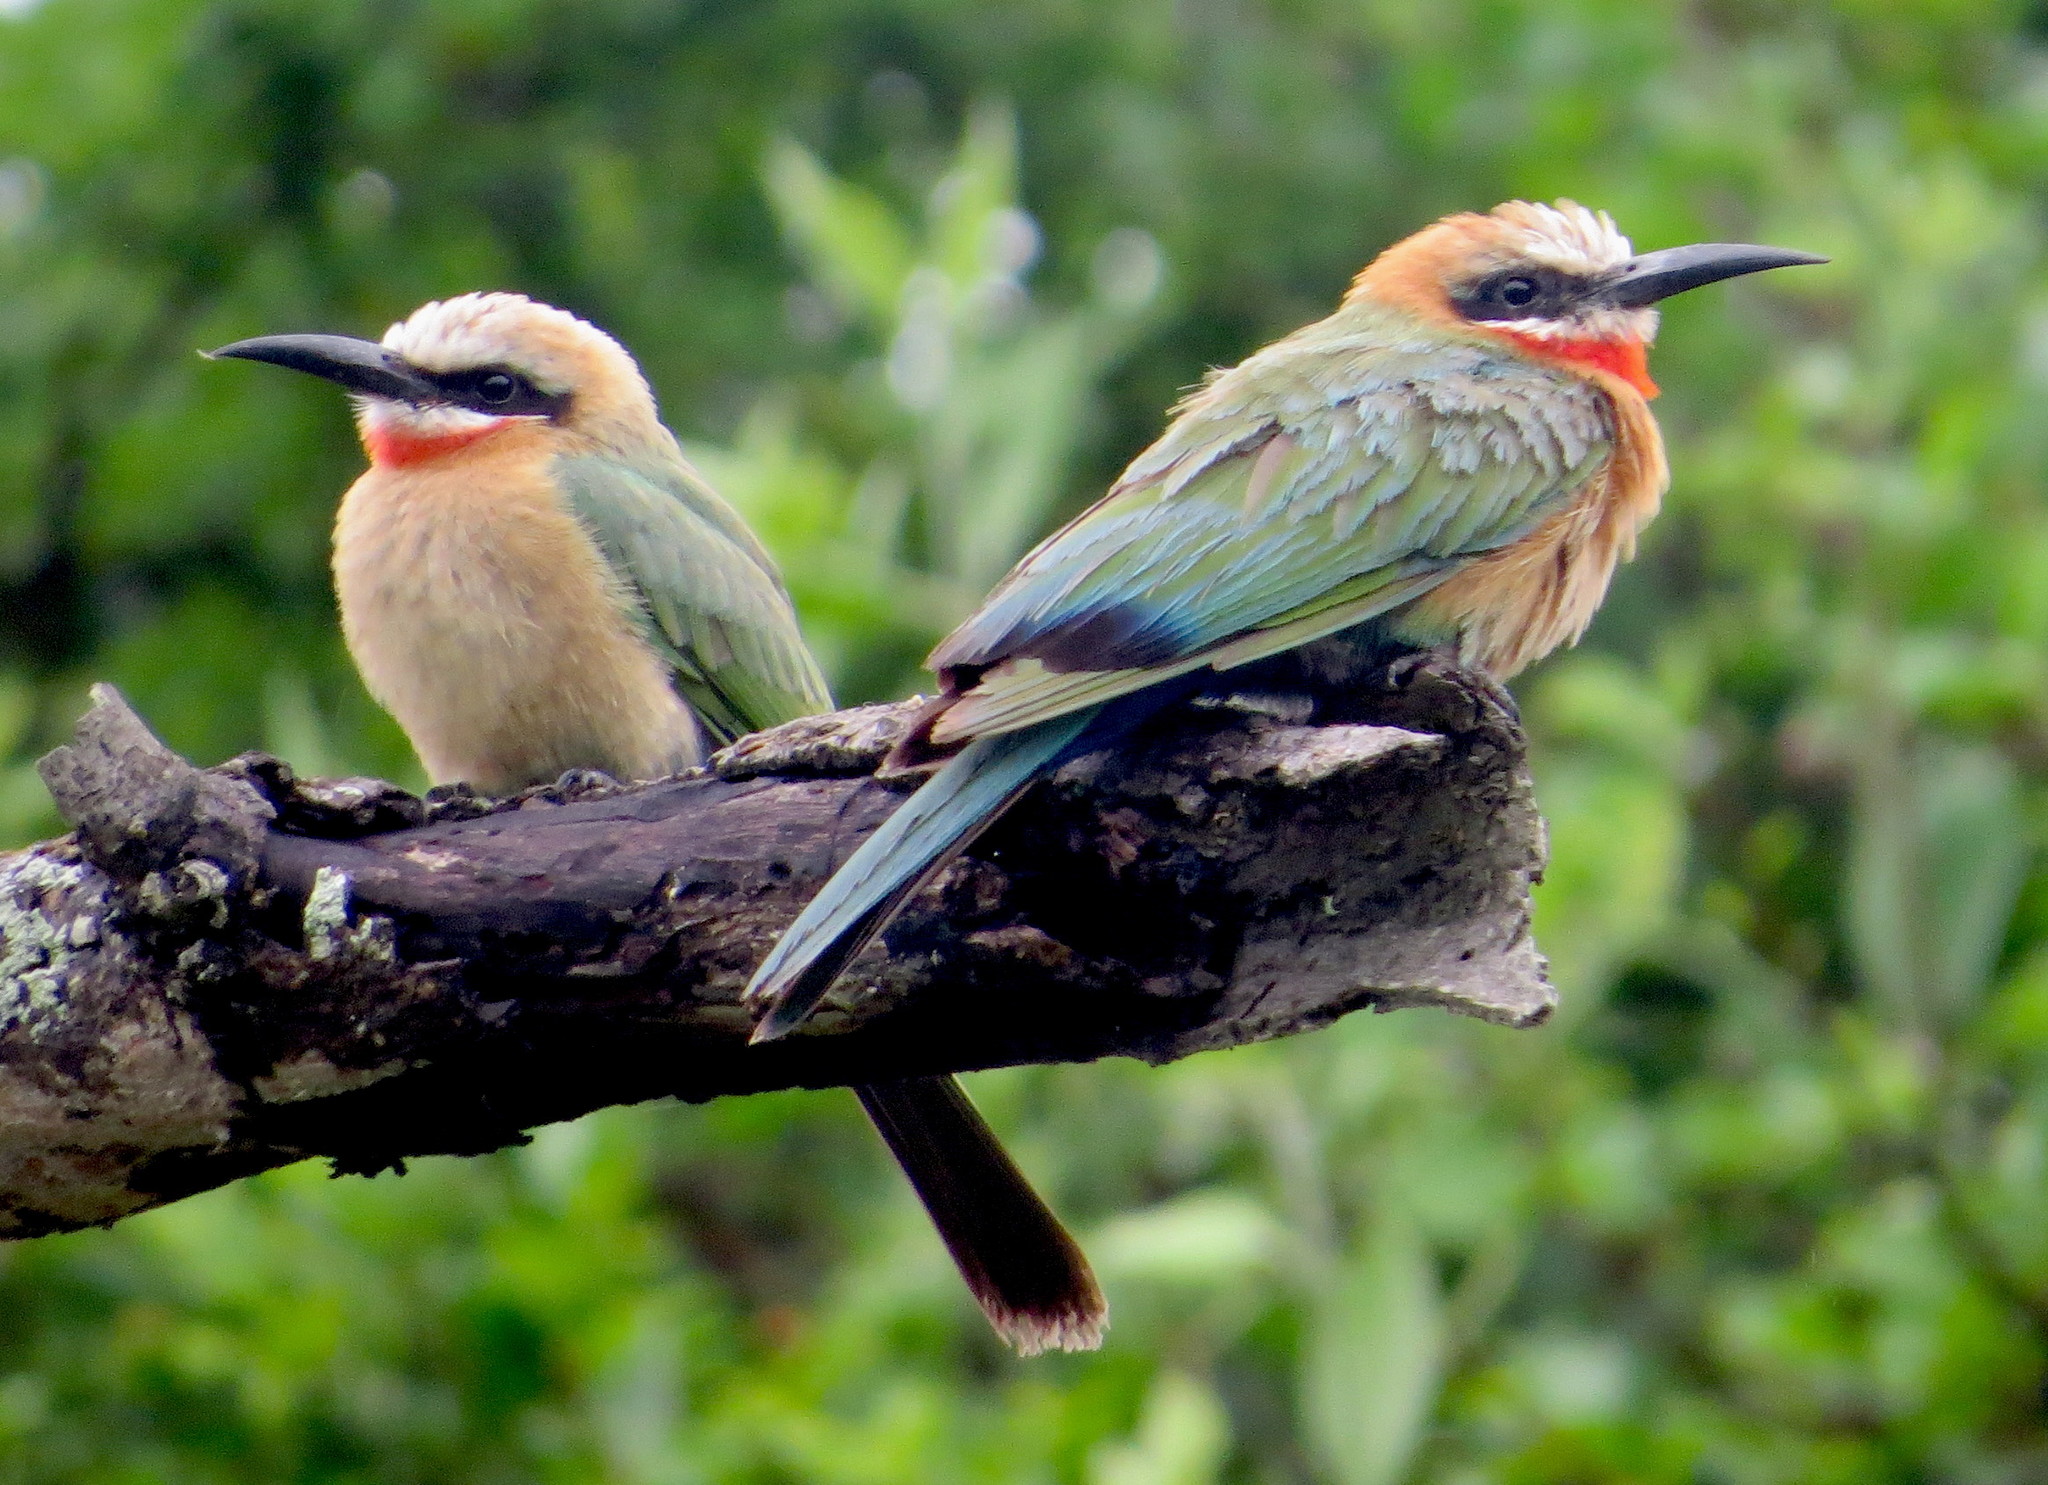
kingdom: Animalia
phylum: Chordata
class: Aves
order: Coraciiformes
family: Meropidae
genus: Merops
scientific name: Merops bullockoides
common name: White-fronted bee-eater
